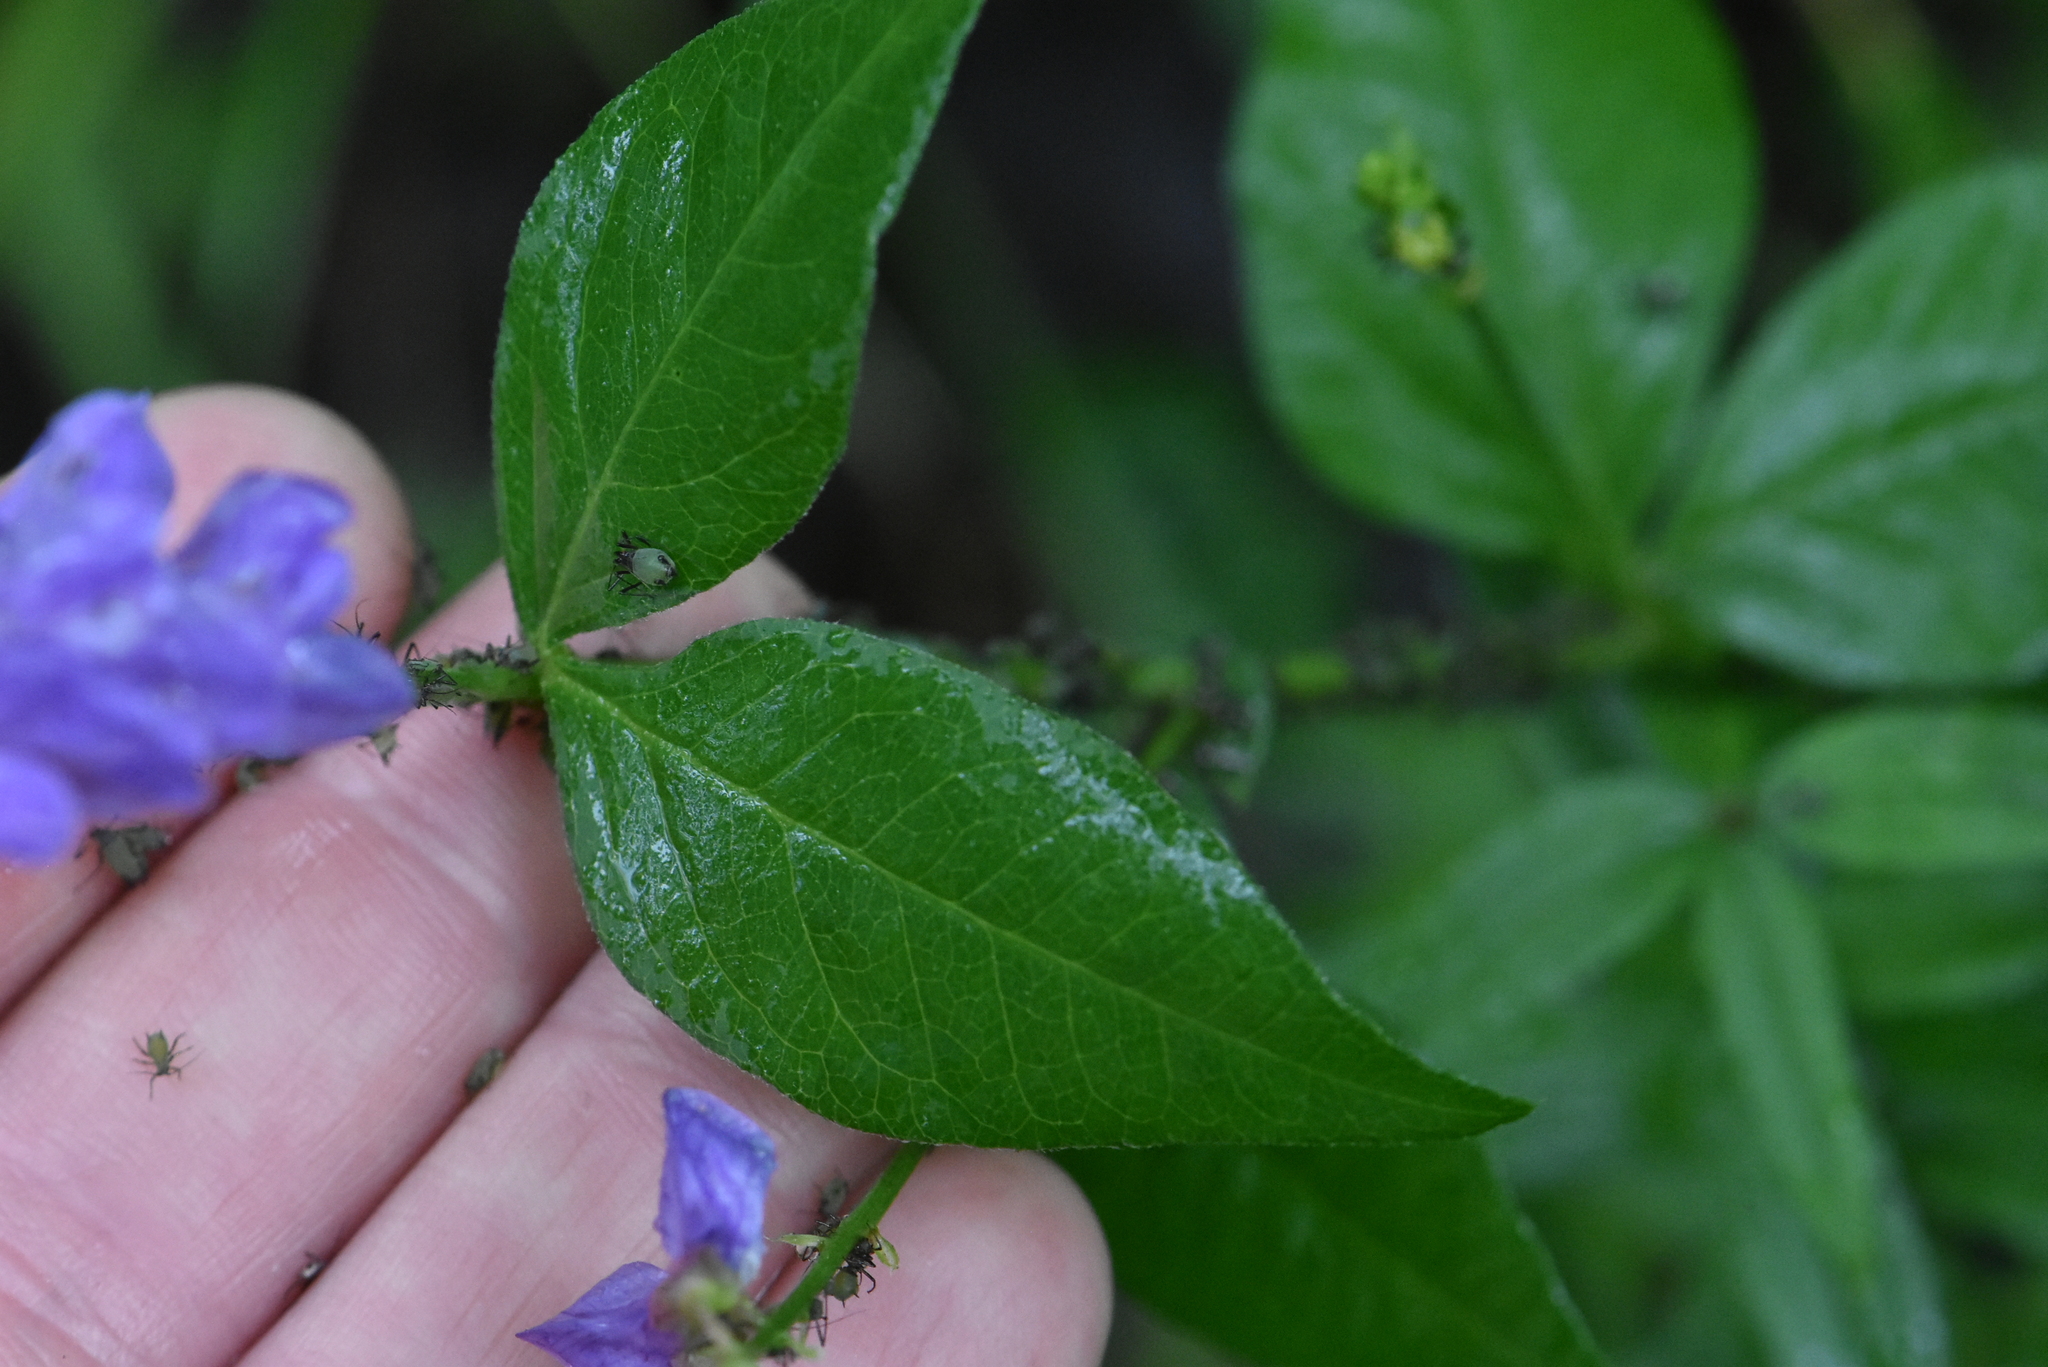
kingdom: Plantae
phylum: Tracheophyta
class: Magnoliopsida
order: Fabales
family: Fabaceae
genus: Vicia
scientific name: Vicia unijuga
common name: Two-leaf vetch
